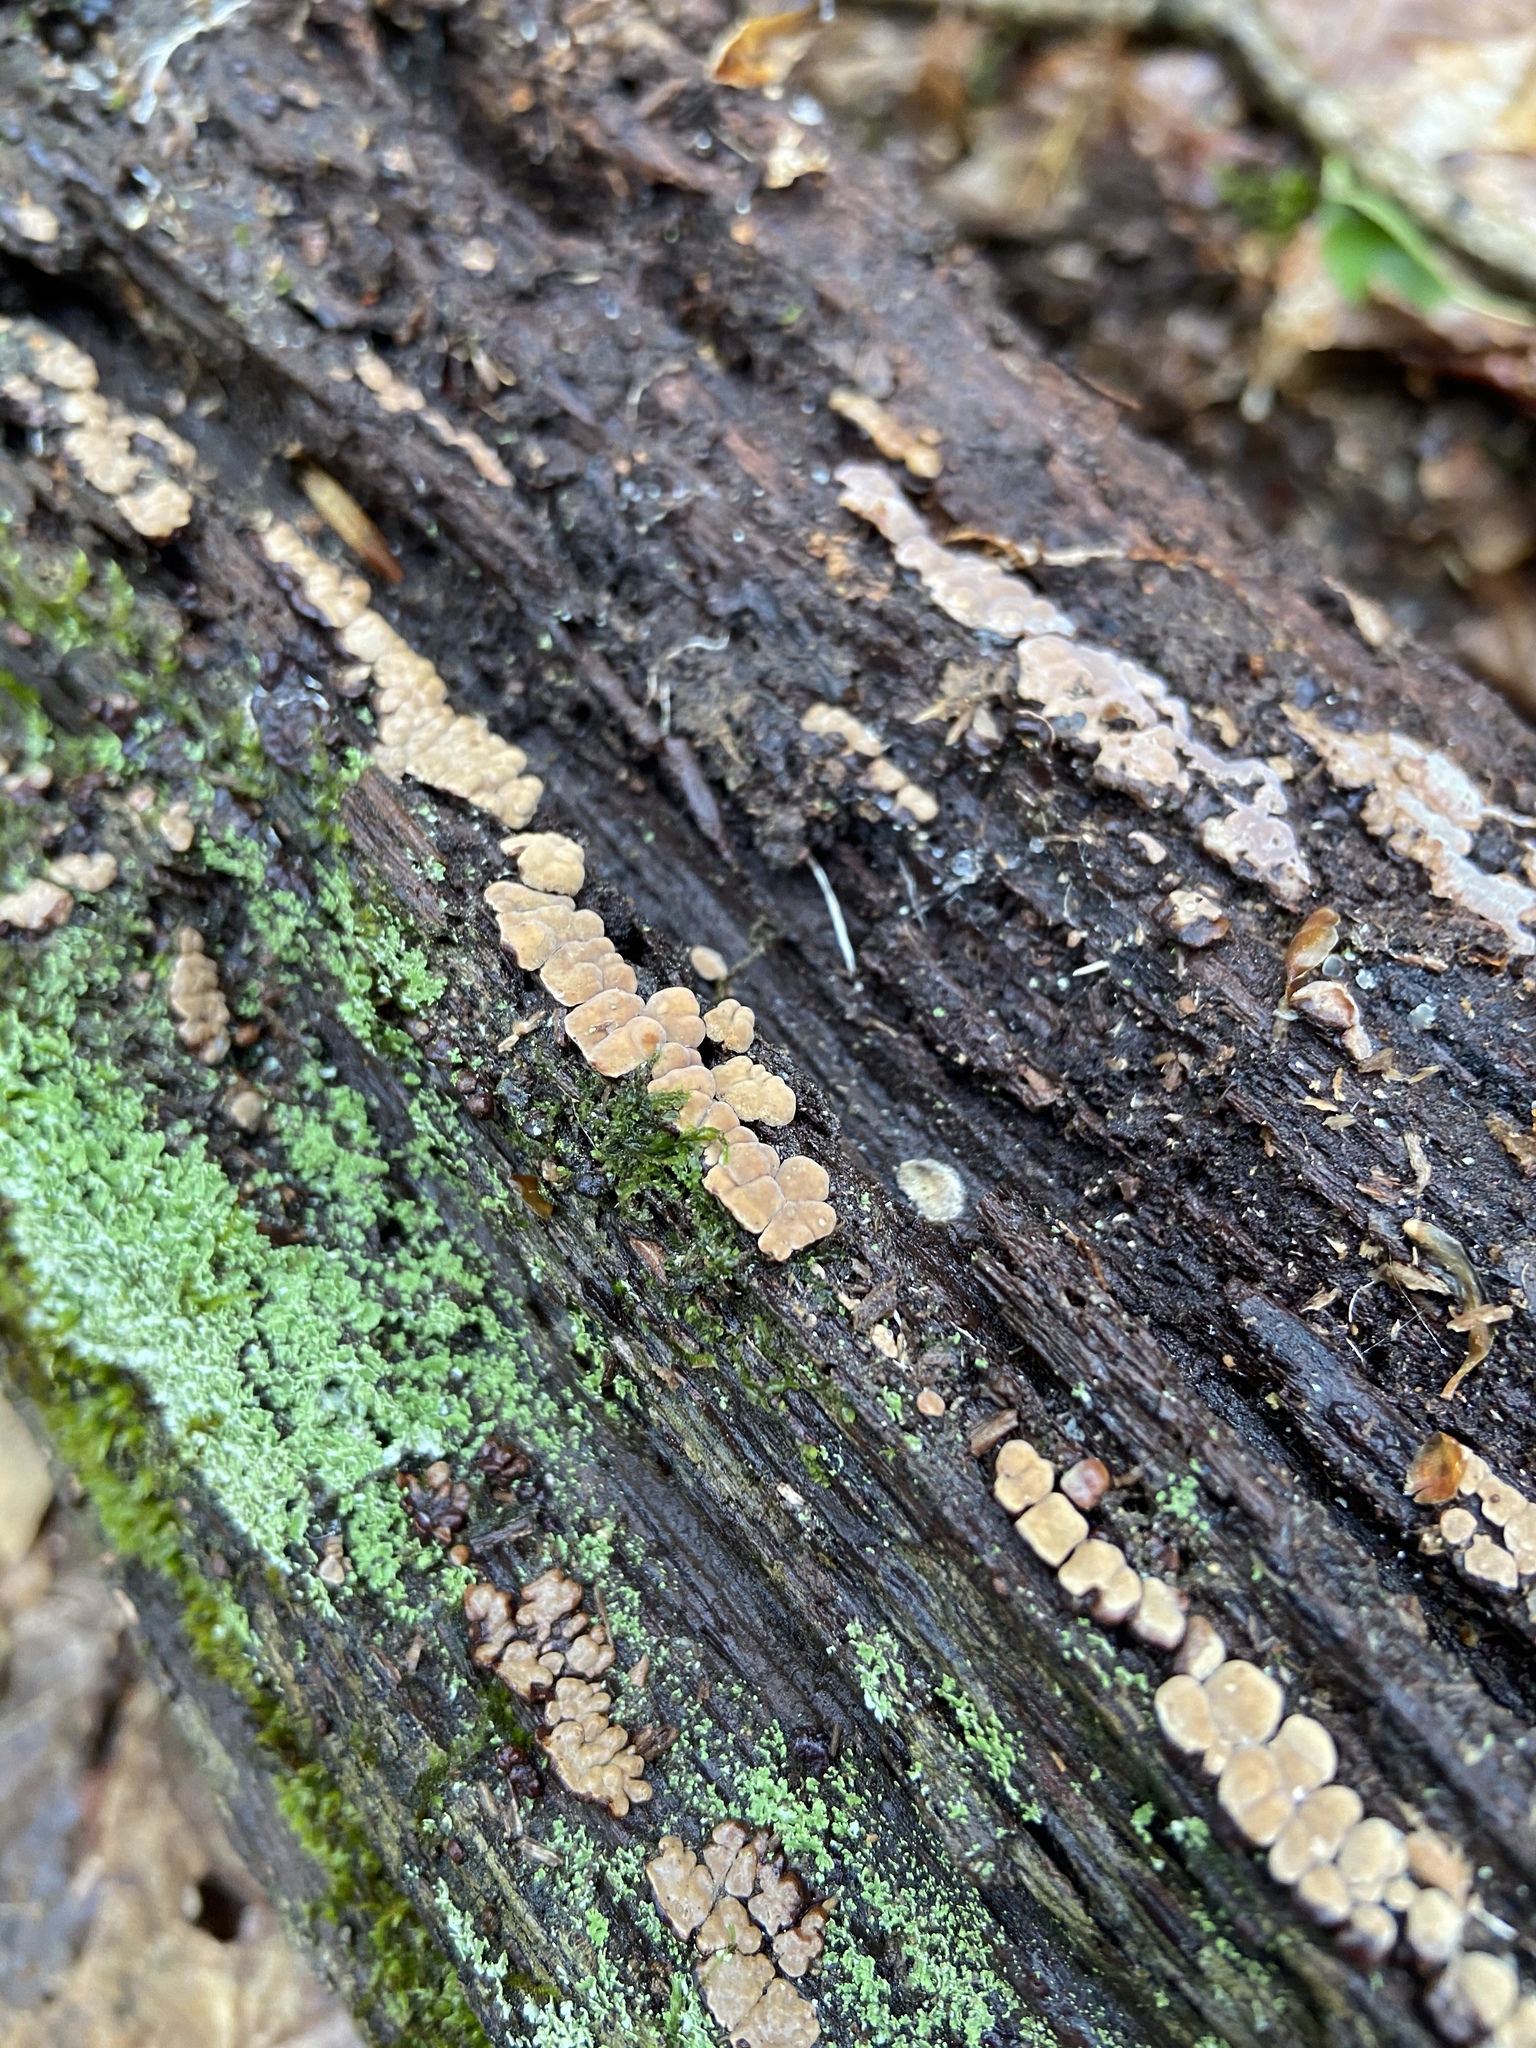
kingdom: Fungi
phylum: Basidiomycota
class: Agaricomycetes
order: Russulales
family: Stereaceae
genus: Xylobolus
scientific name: Xylobolus frustulatus
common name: Ceramic parchment
